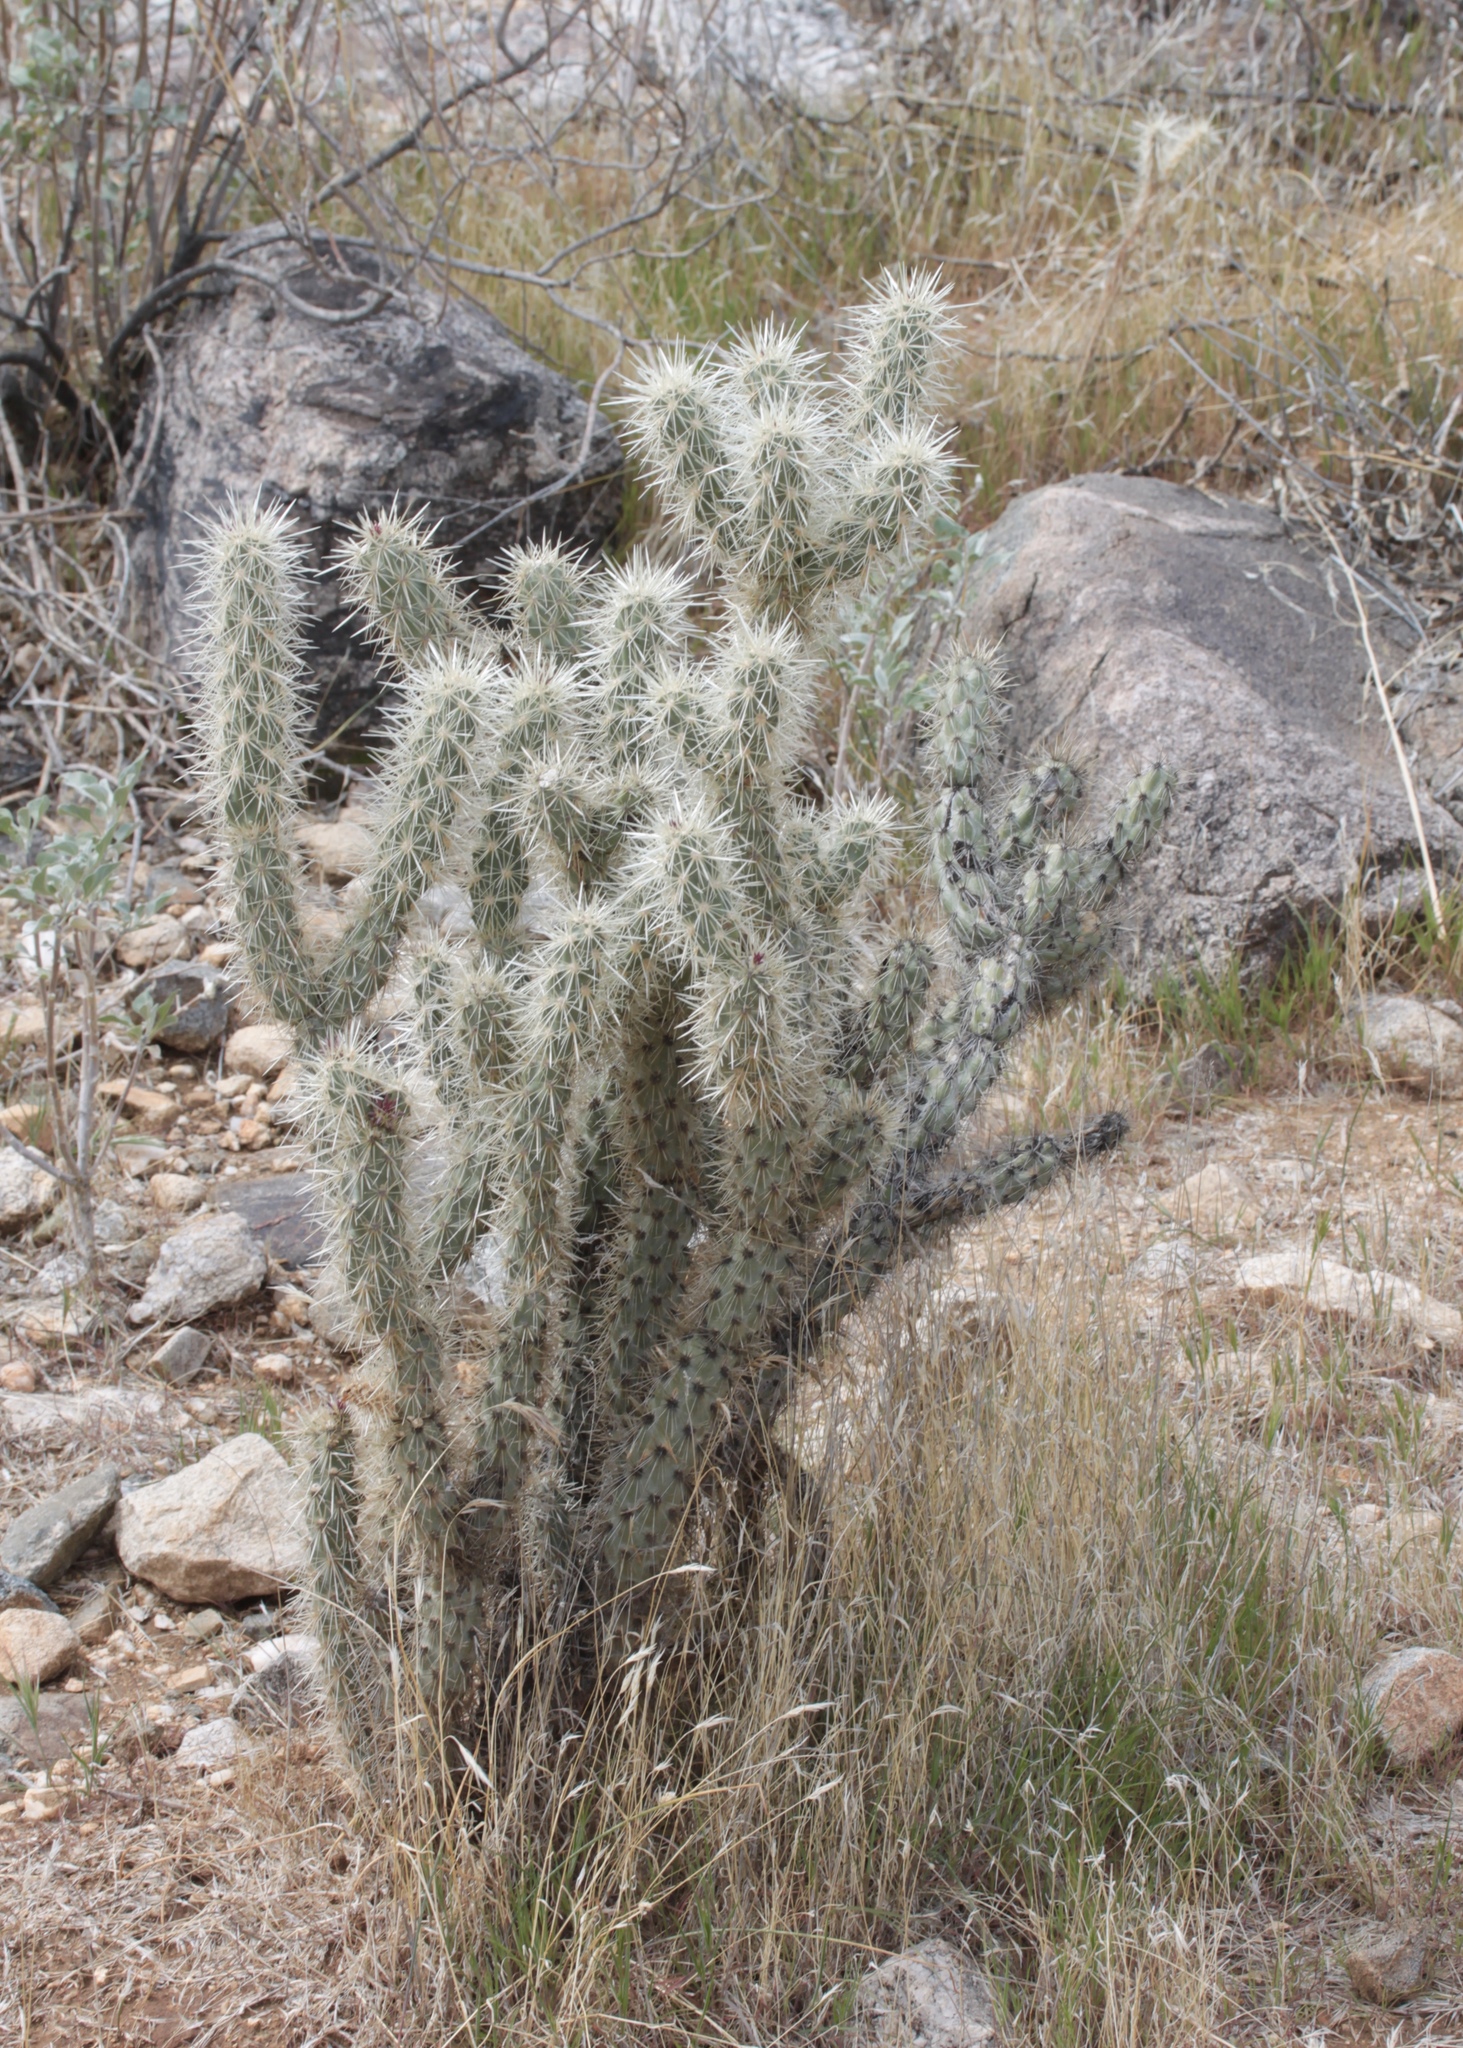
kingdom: Plantae
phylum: Tracheophyta
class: Magnoliopsida
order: Caryophyllales
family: Cactaceae
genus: Cylindropuntia
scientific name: Cylindropuntia acanthocarpa
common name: Buckhorn cholla
